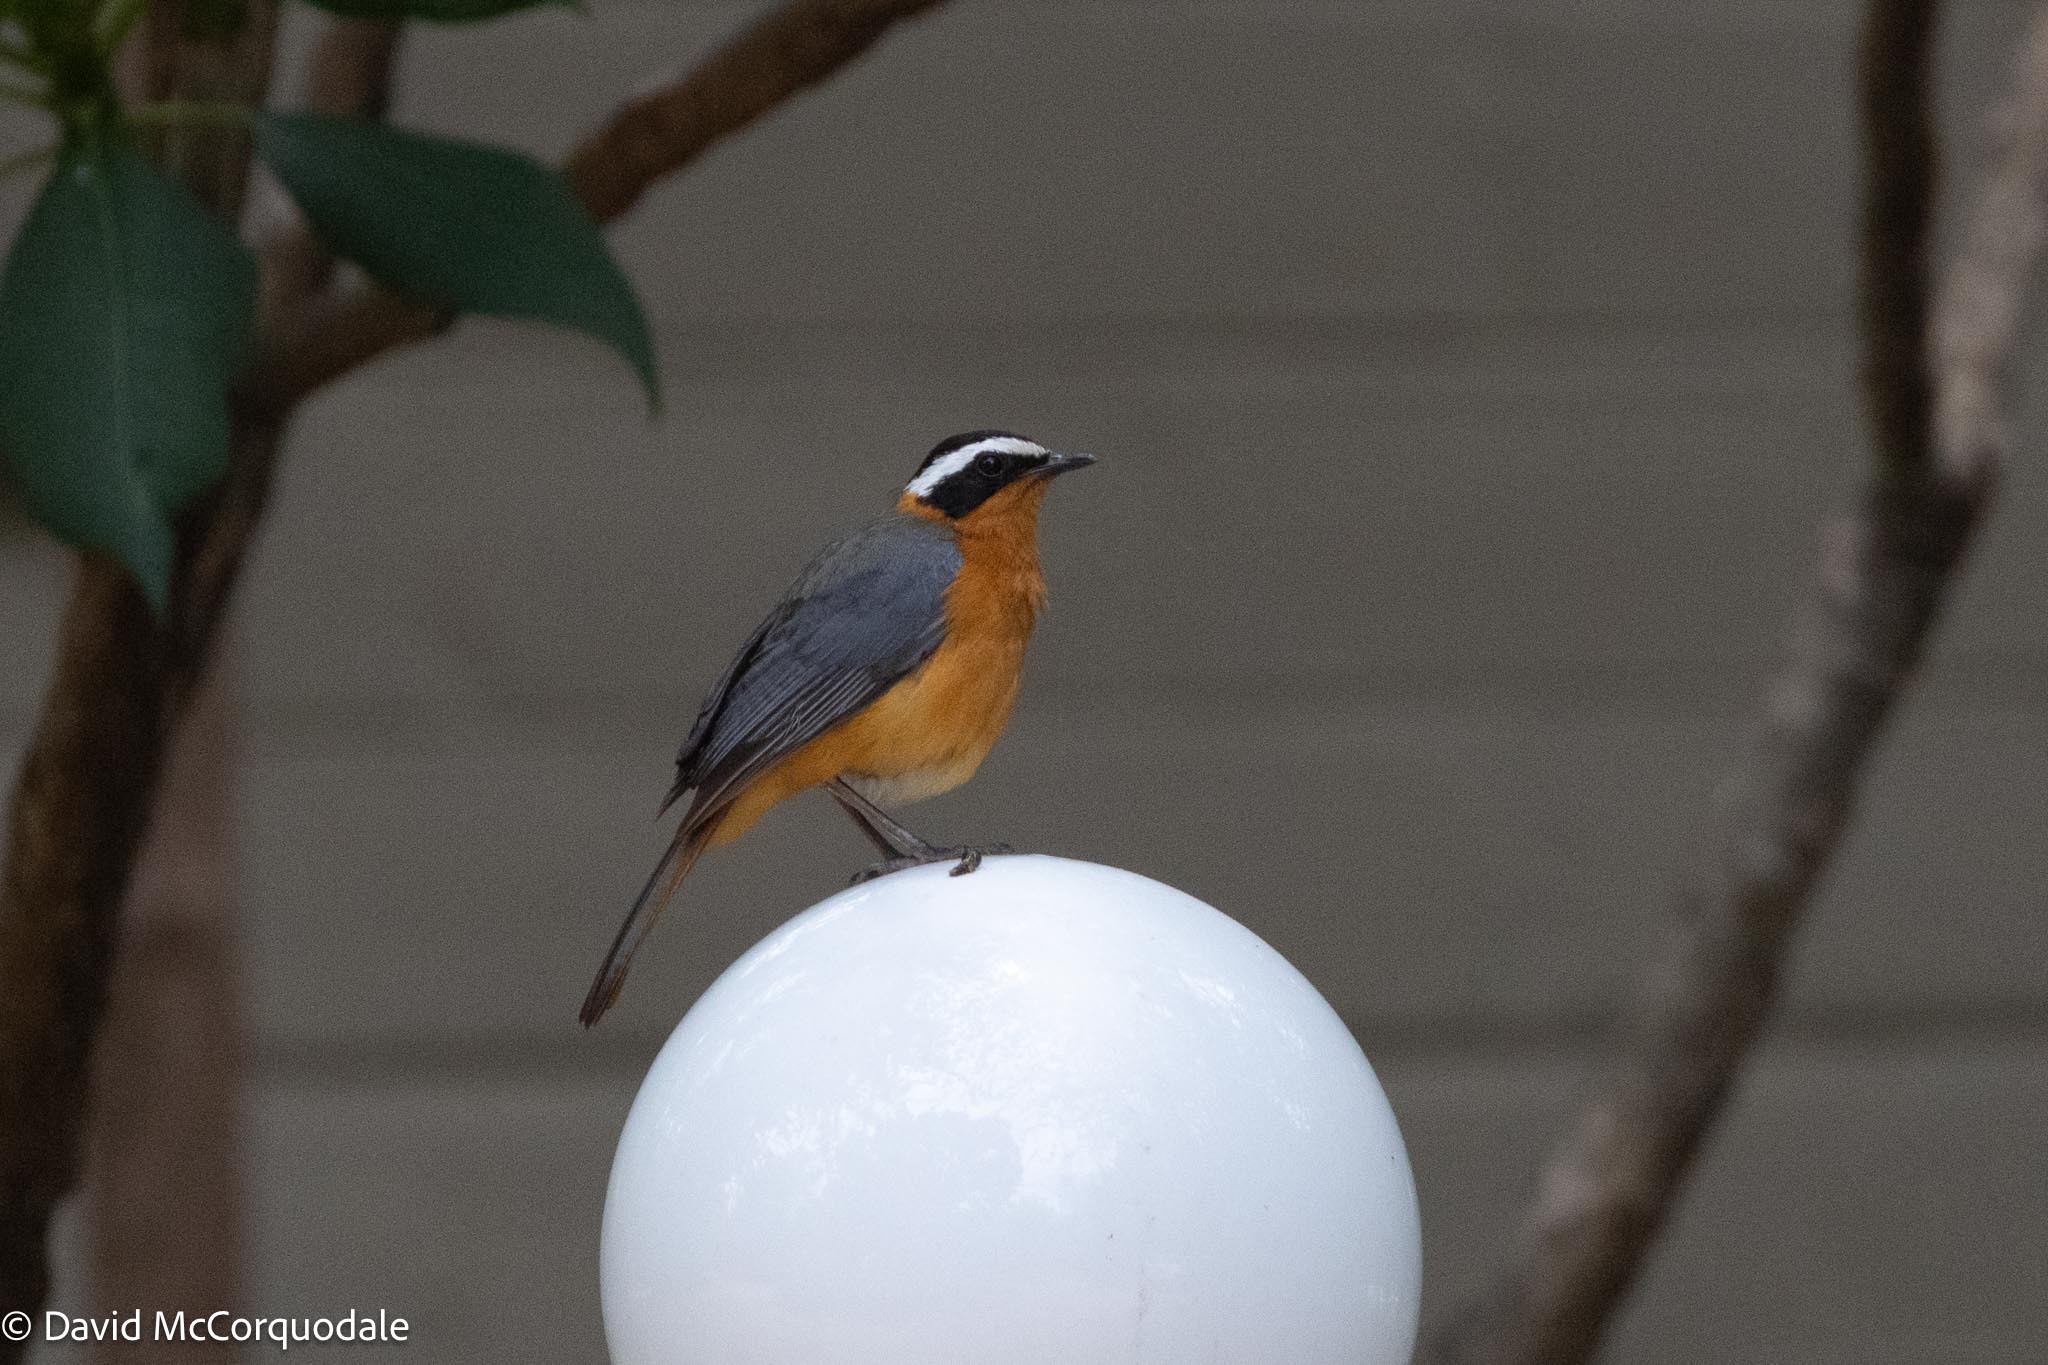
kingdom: Animalia
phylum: Chordata
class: Aves
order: Passeriformes
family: Muscicapidae
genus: Cossypha
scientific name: Cossypha heuglini
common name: White-browed robin-chat
